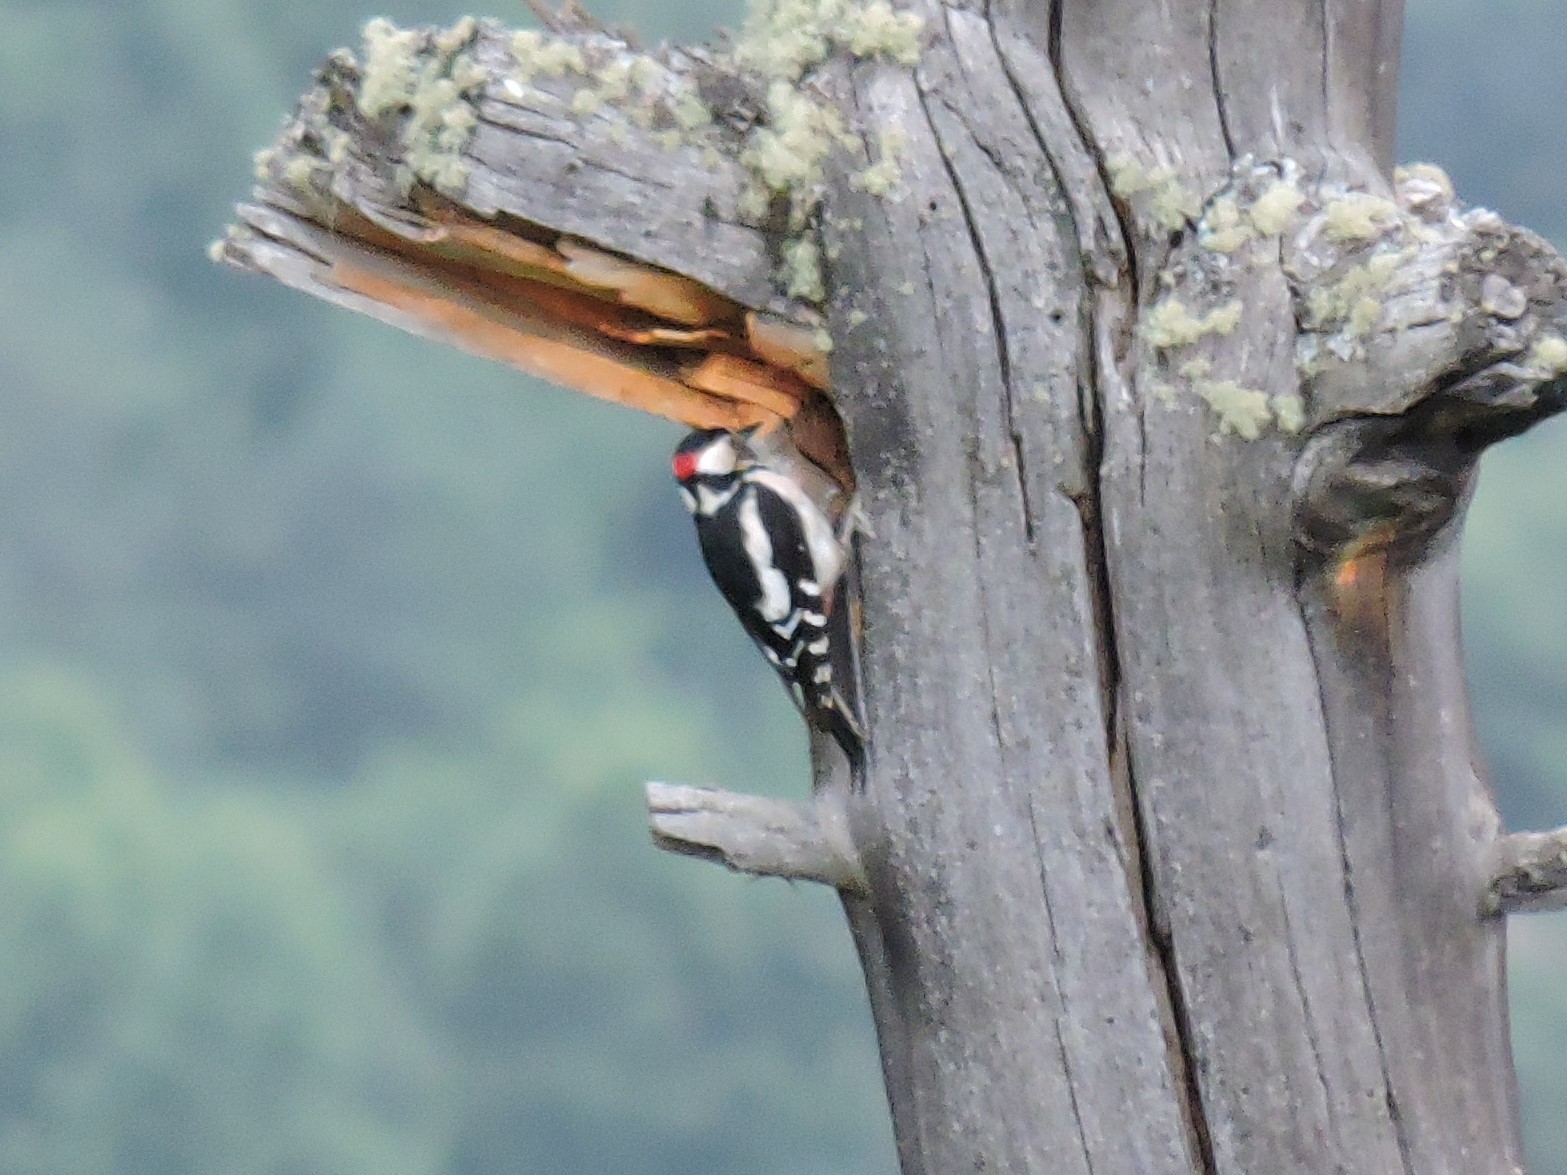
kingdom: Animalia
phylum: Chordata
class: Aves
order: Piciformes
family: Picidae
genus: Dendrocopos
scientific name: Dendrocopos major
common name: Great spotted woodpecker
